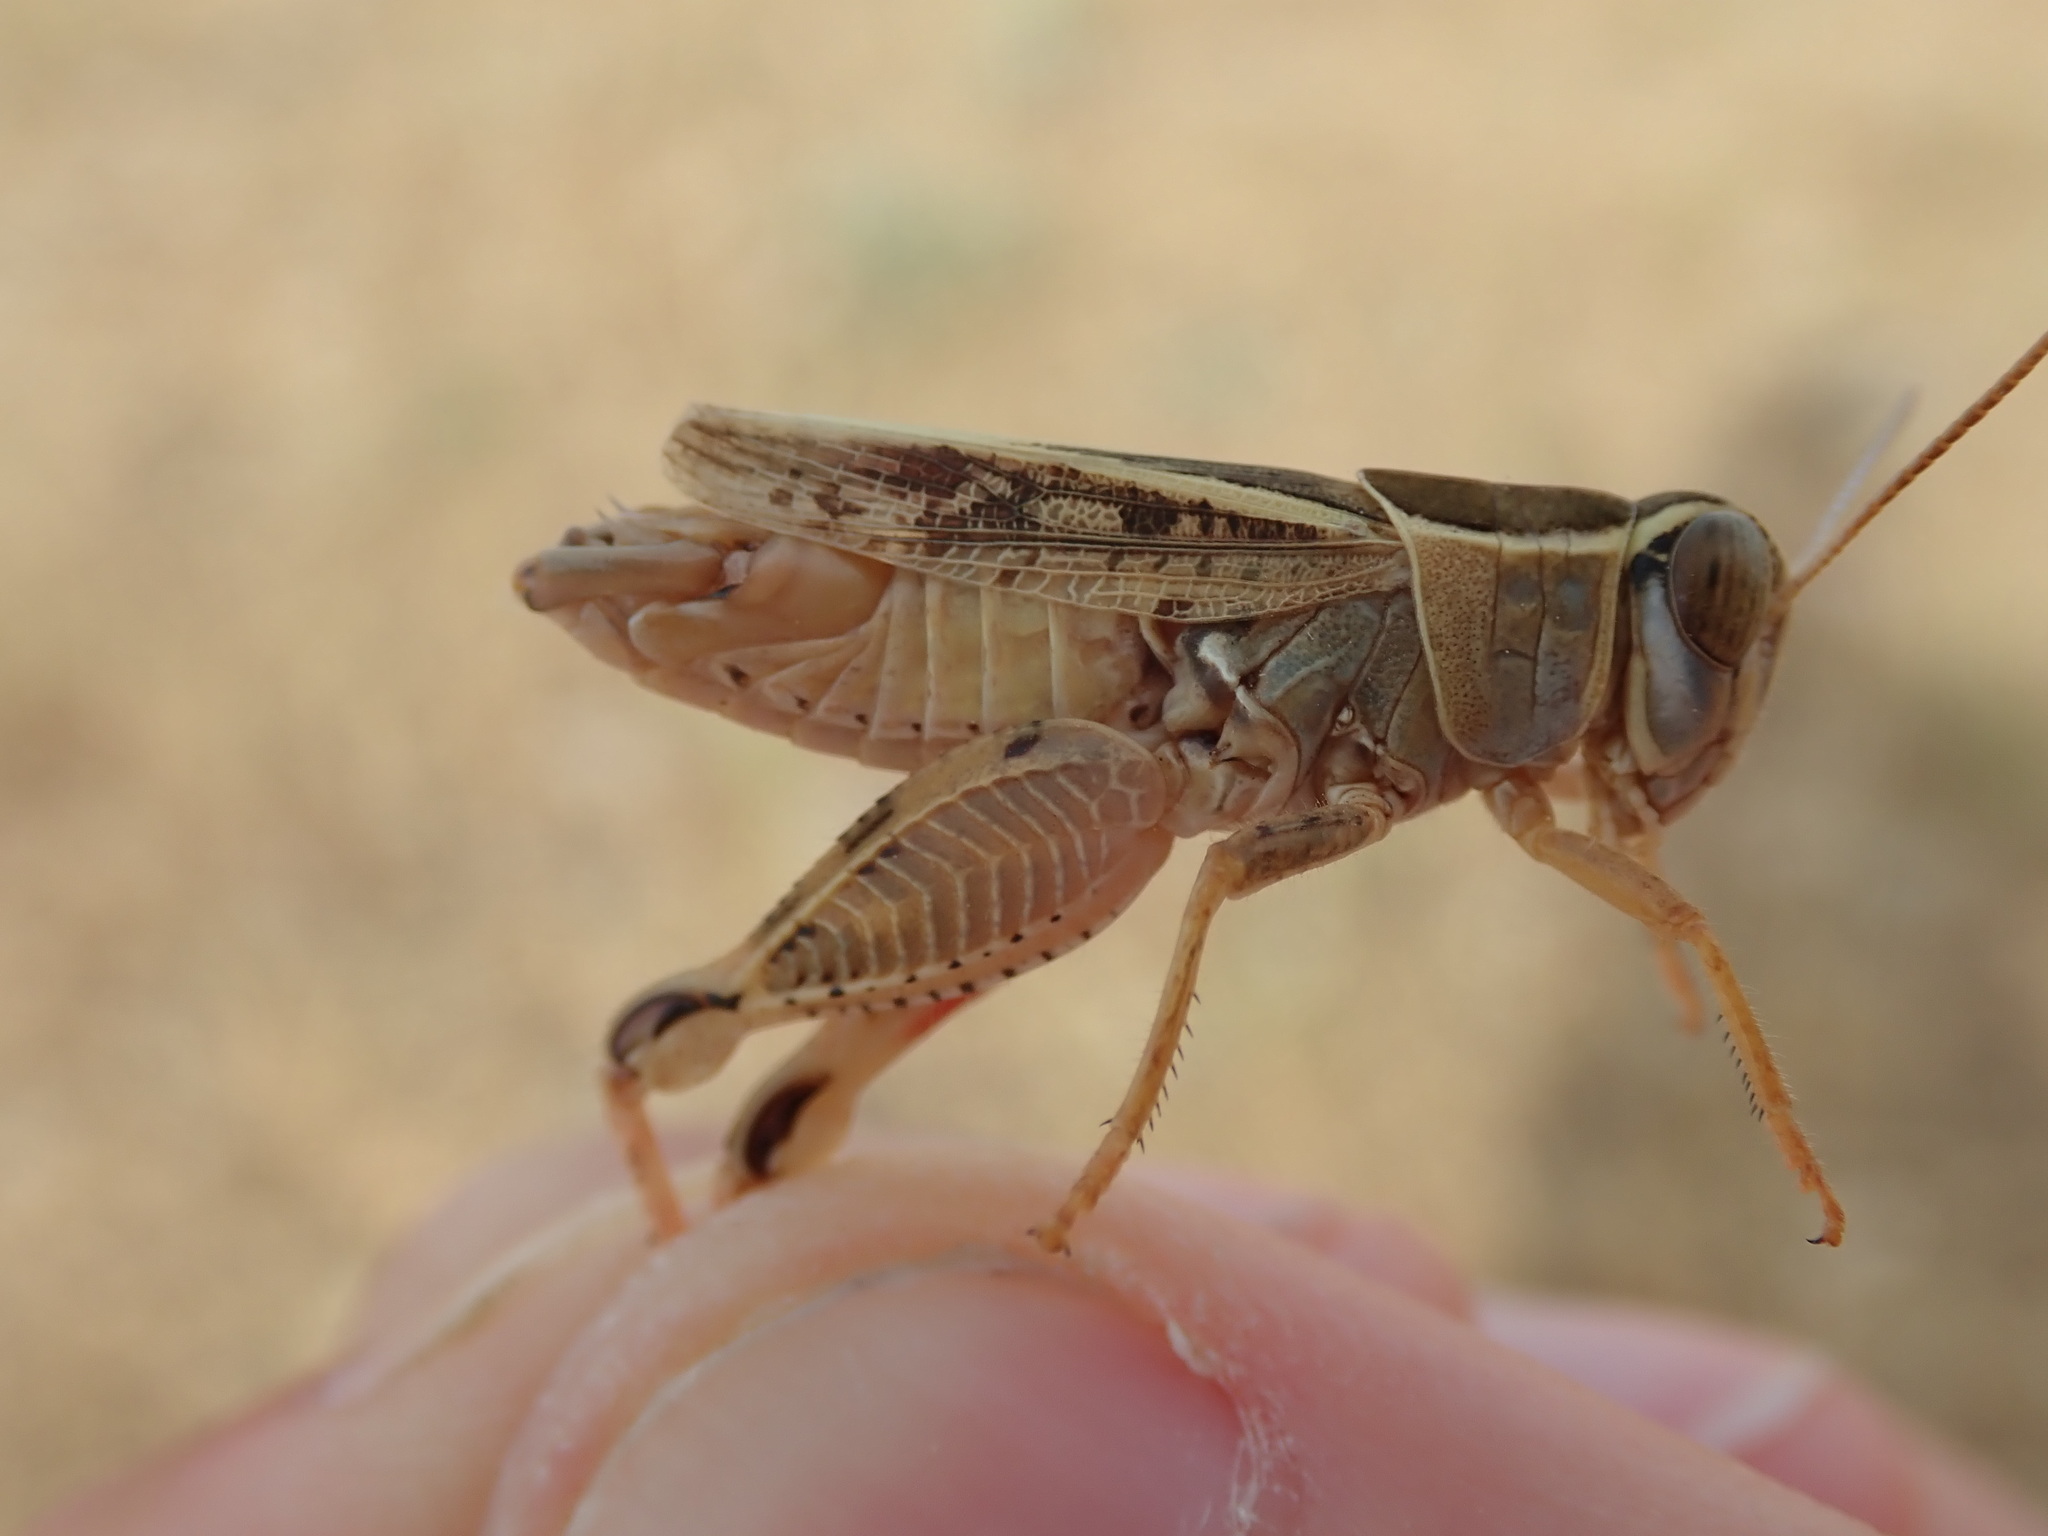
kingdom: Animalia
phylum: Arthropoda
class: Insecta
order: Orthoptera
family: Acrididae
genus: Calliptamus
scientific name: Calliptamus wattenwylianus
